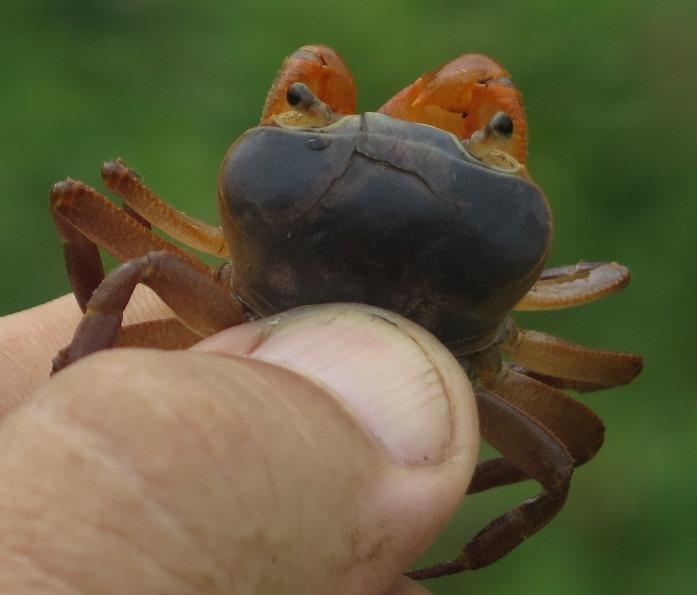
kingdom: Animalia
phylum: Arthropoda
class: Malacostraca
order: Decapoda
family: Potamonautidae
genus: Potamonautes
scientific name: Potamonautes lividus
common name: Blue river crab
